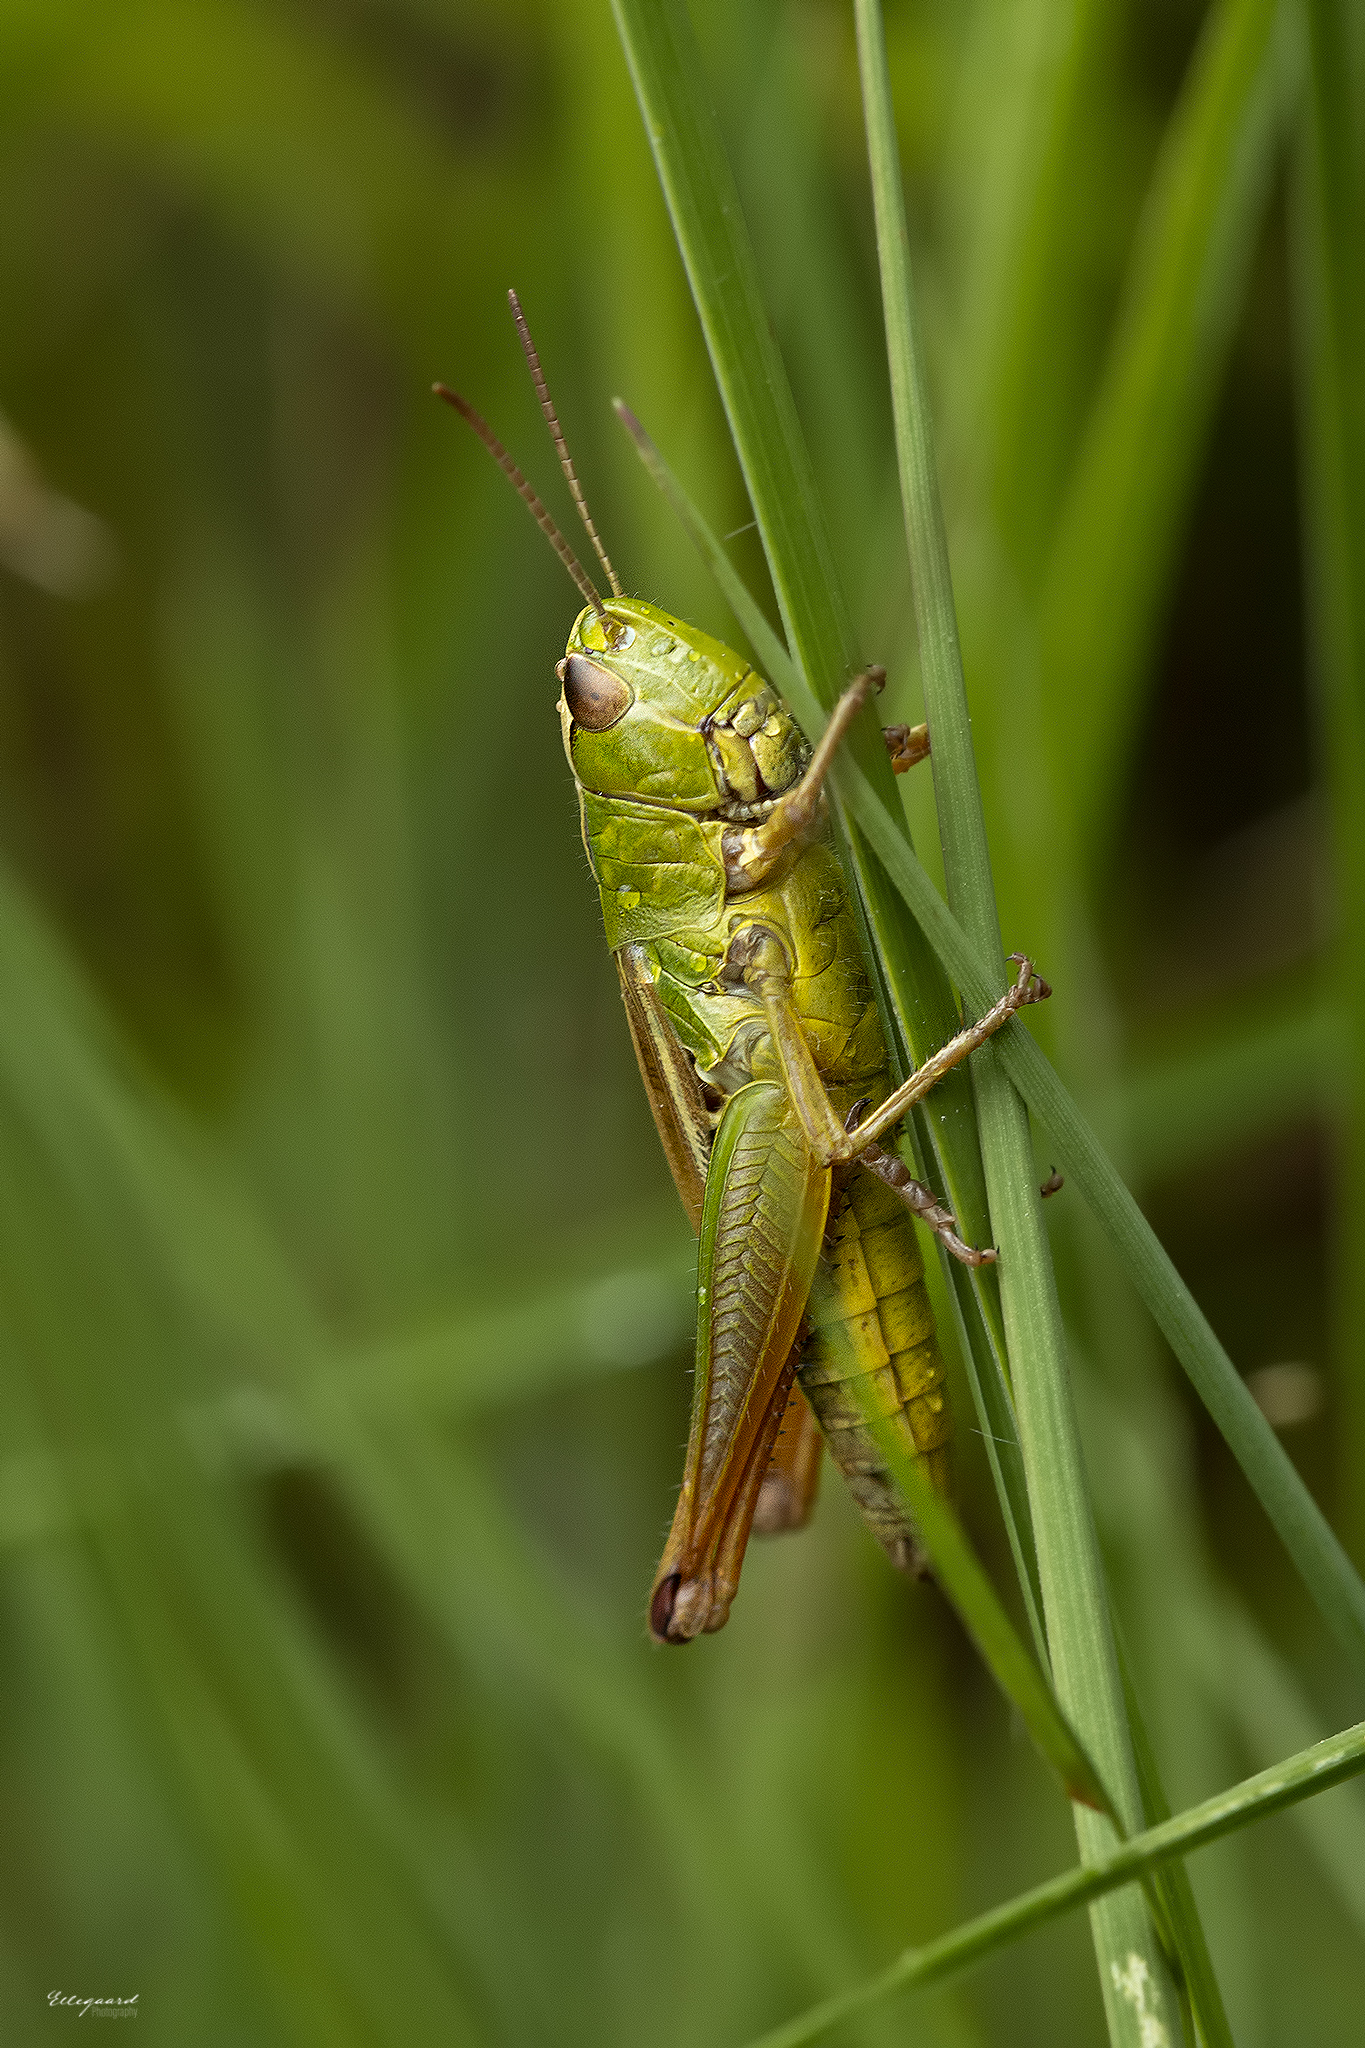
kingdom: Animalia
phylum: Arthropoda
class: Insecta
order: Orthoptera
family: Acrididae
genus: Pseudochorthippus
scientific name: Pseudochorthippus parallelus
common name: Meadow grasshopper
